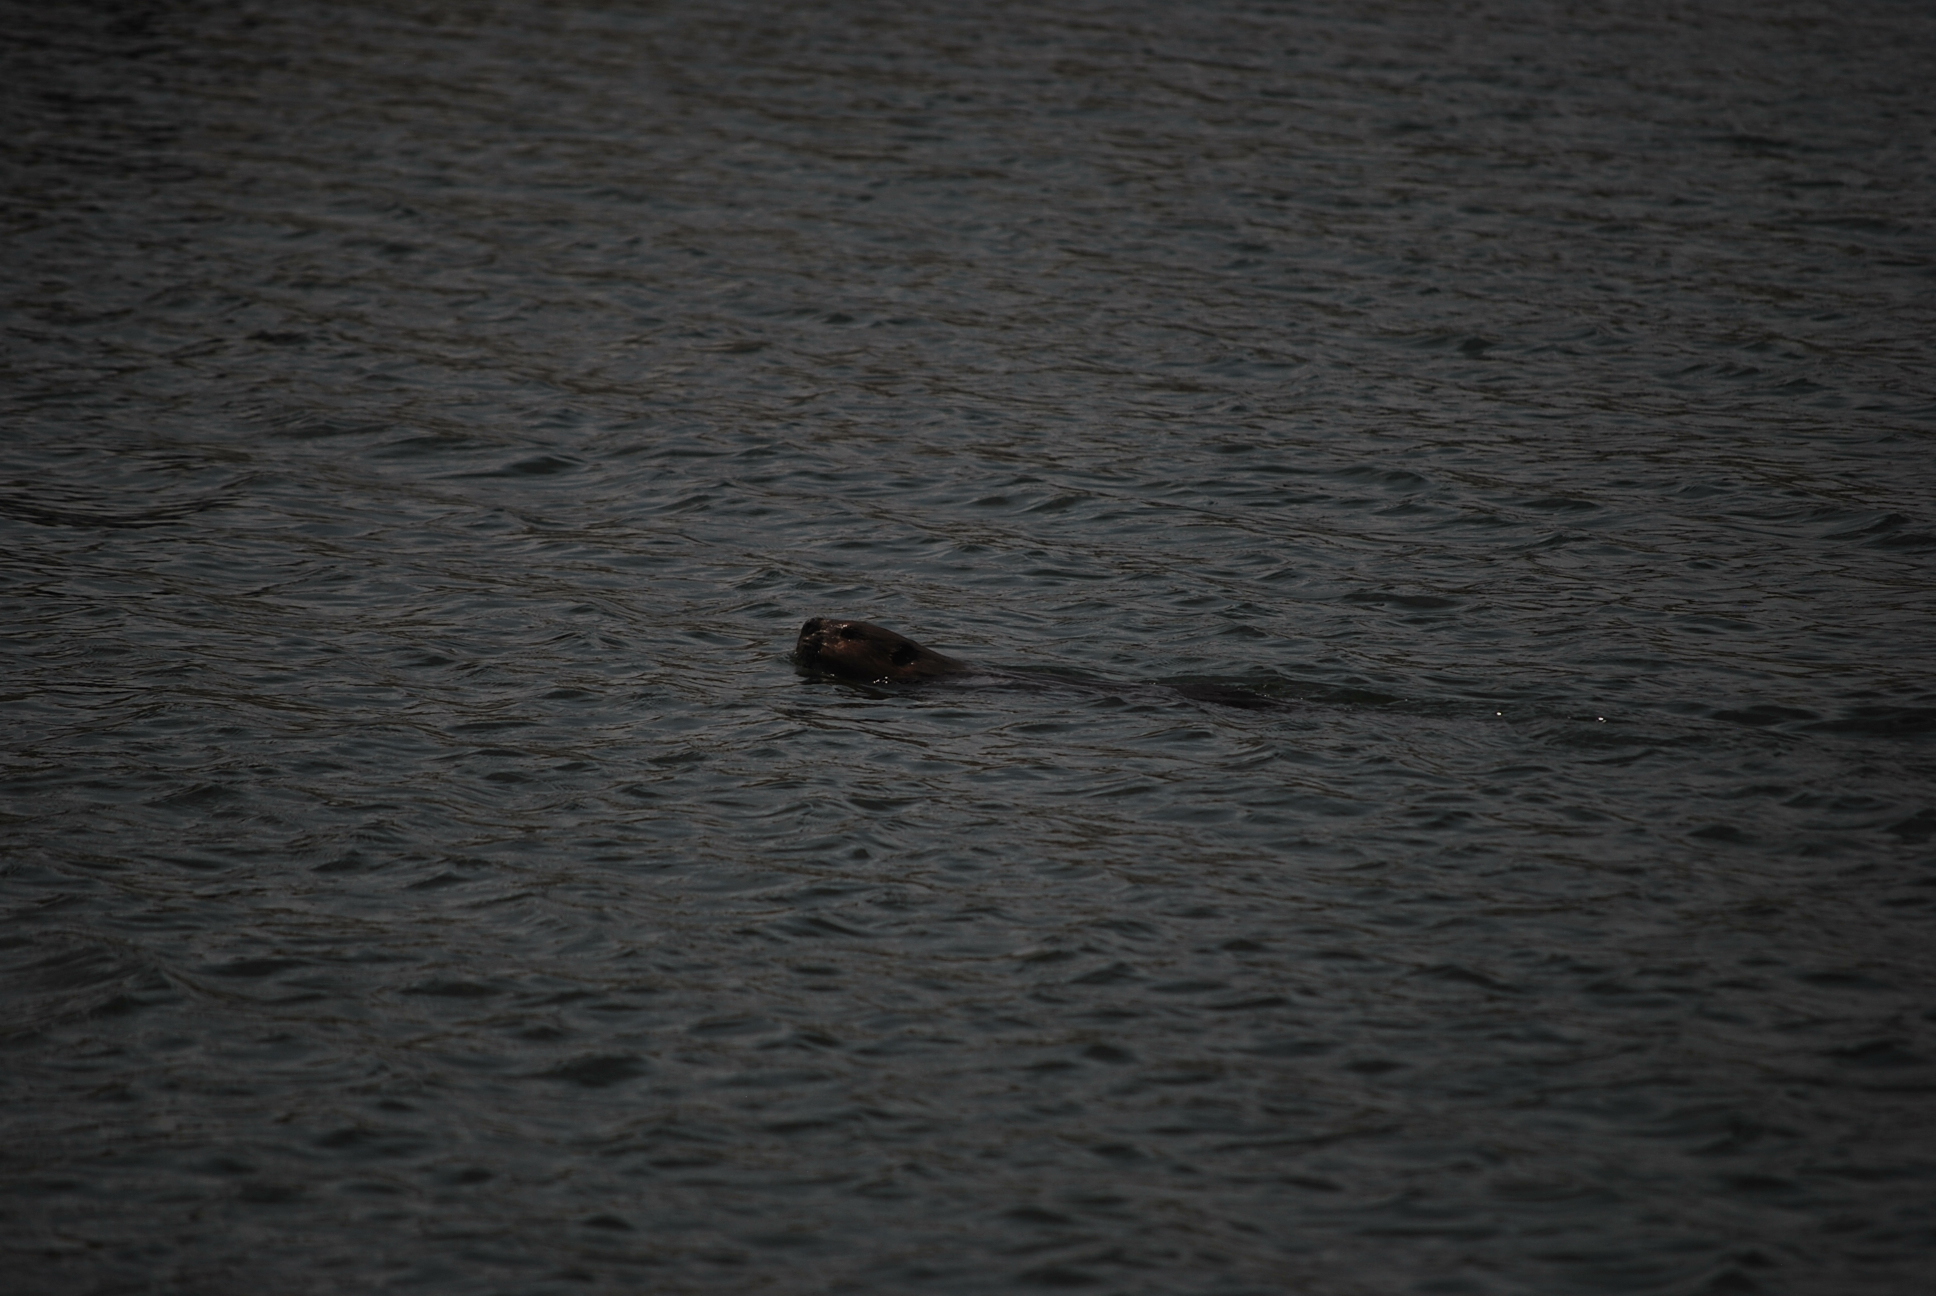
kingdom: Animalia
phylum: Chordata
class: Mammalia
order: Rodentia
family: Castoridae
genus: Castor
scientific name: Castor canadensis
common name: American beaver
